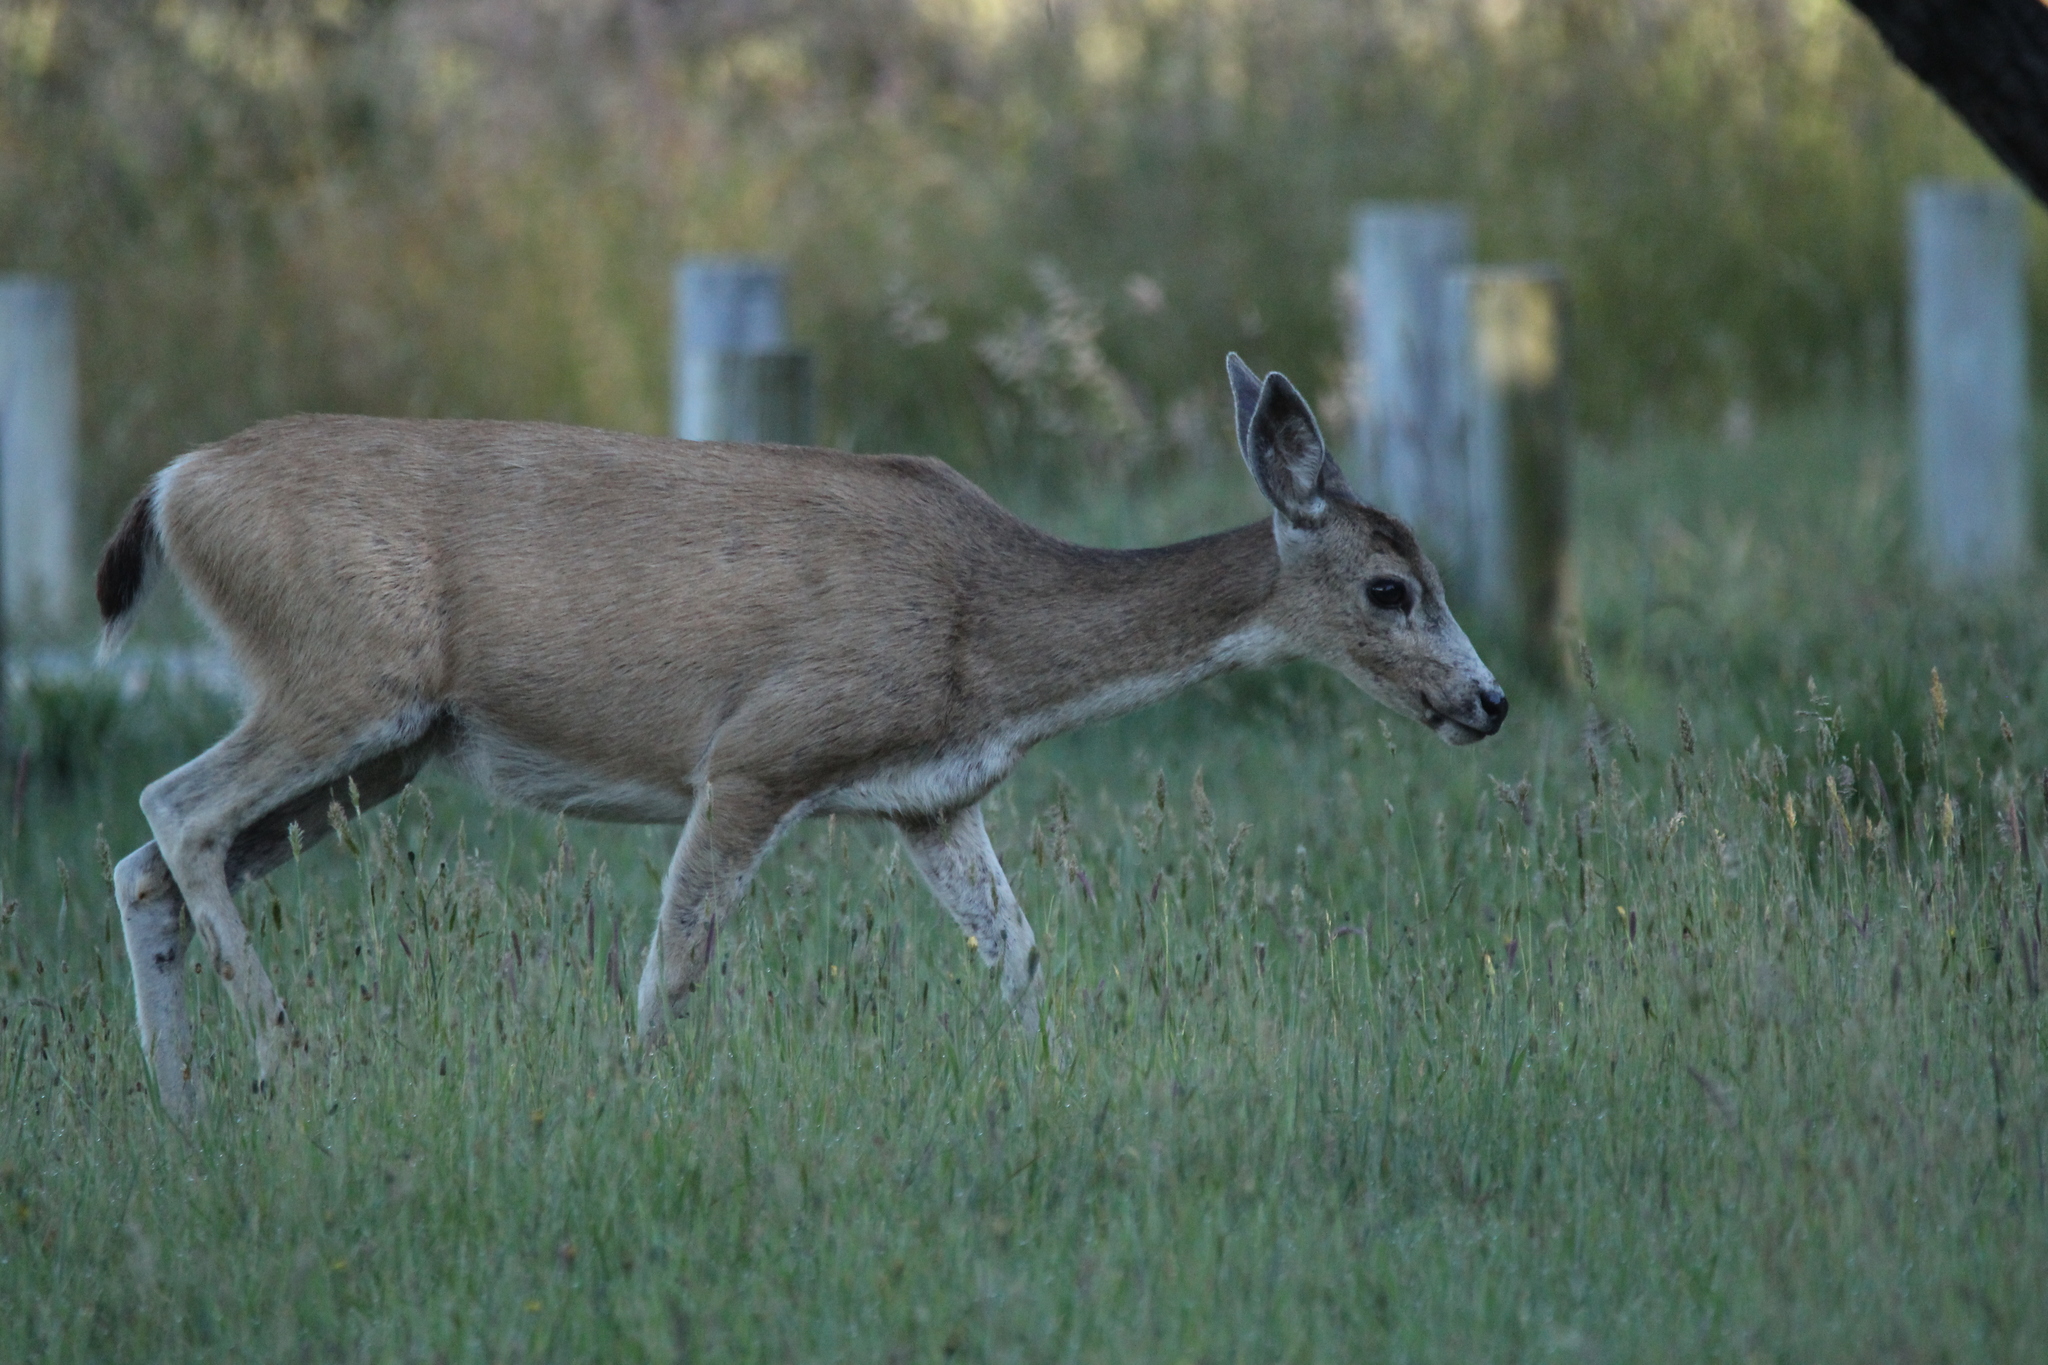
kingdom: Animalia
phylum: Chordata
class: Mammalia
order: Artiodactyla
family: Cervidae
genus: Odocoileus
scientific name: Odocoileus hemionus
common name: Mule deer
